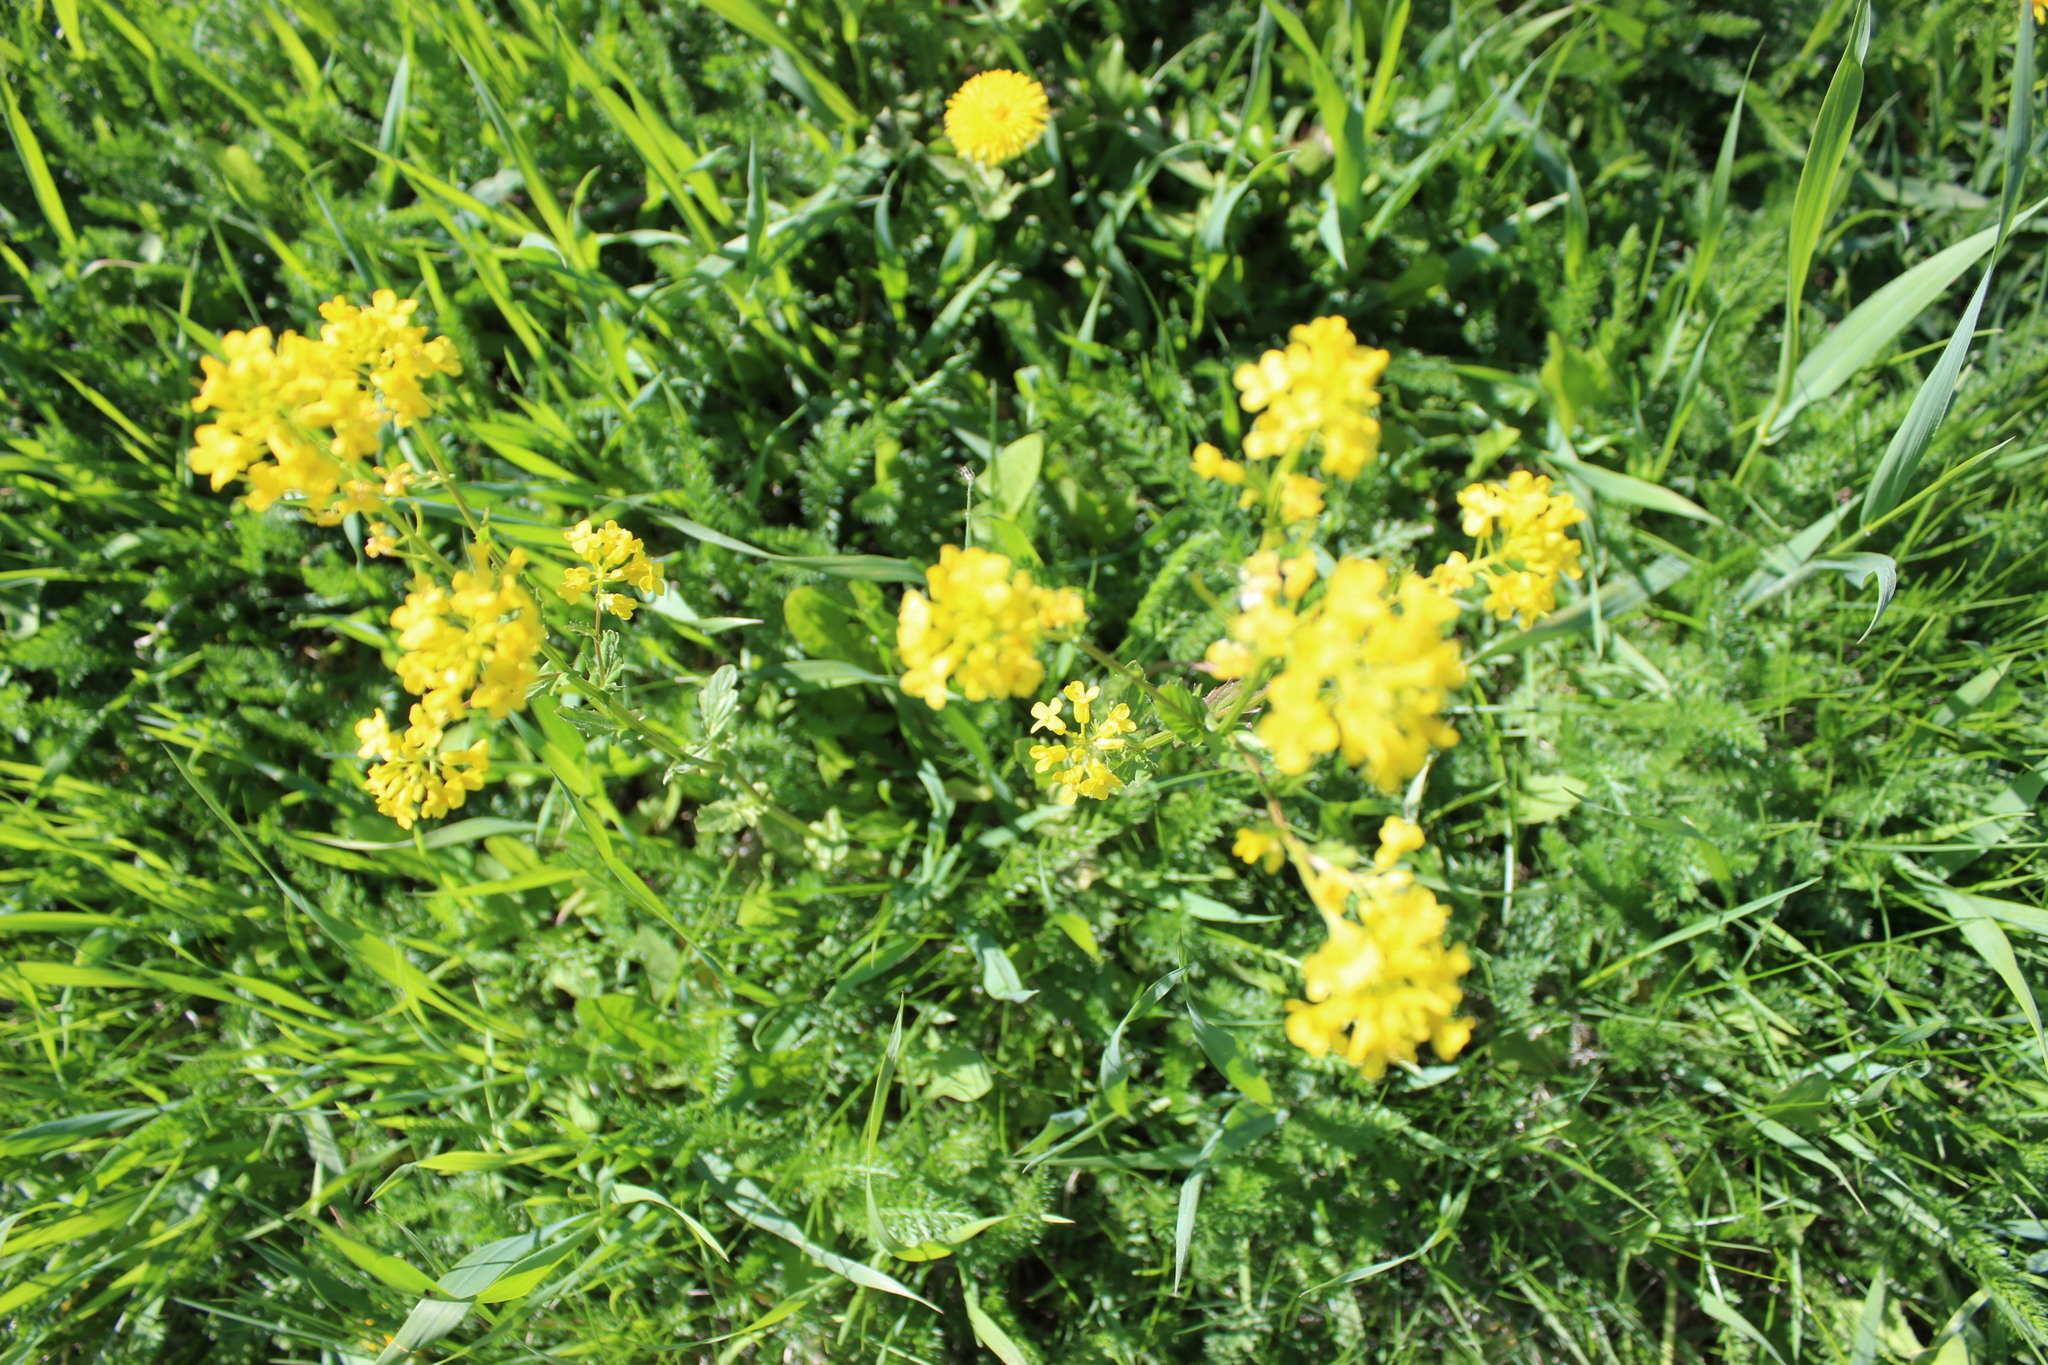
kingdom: Plantae
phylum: Tracheophyta
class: Magnoliopsida
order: Brassicales
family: Brassicaceae
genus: Barbarea
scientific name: Barbarea vulgaris
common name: Cressy-greens
